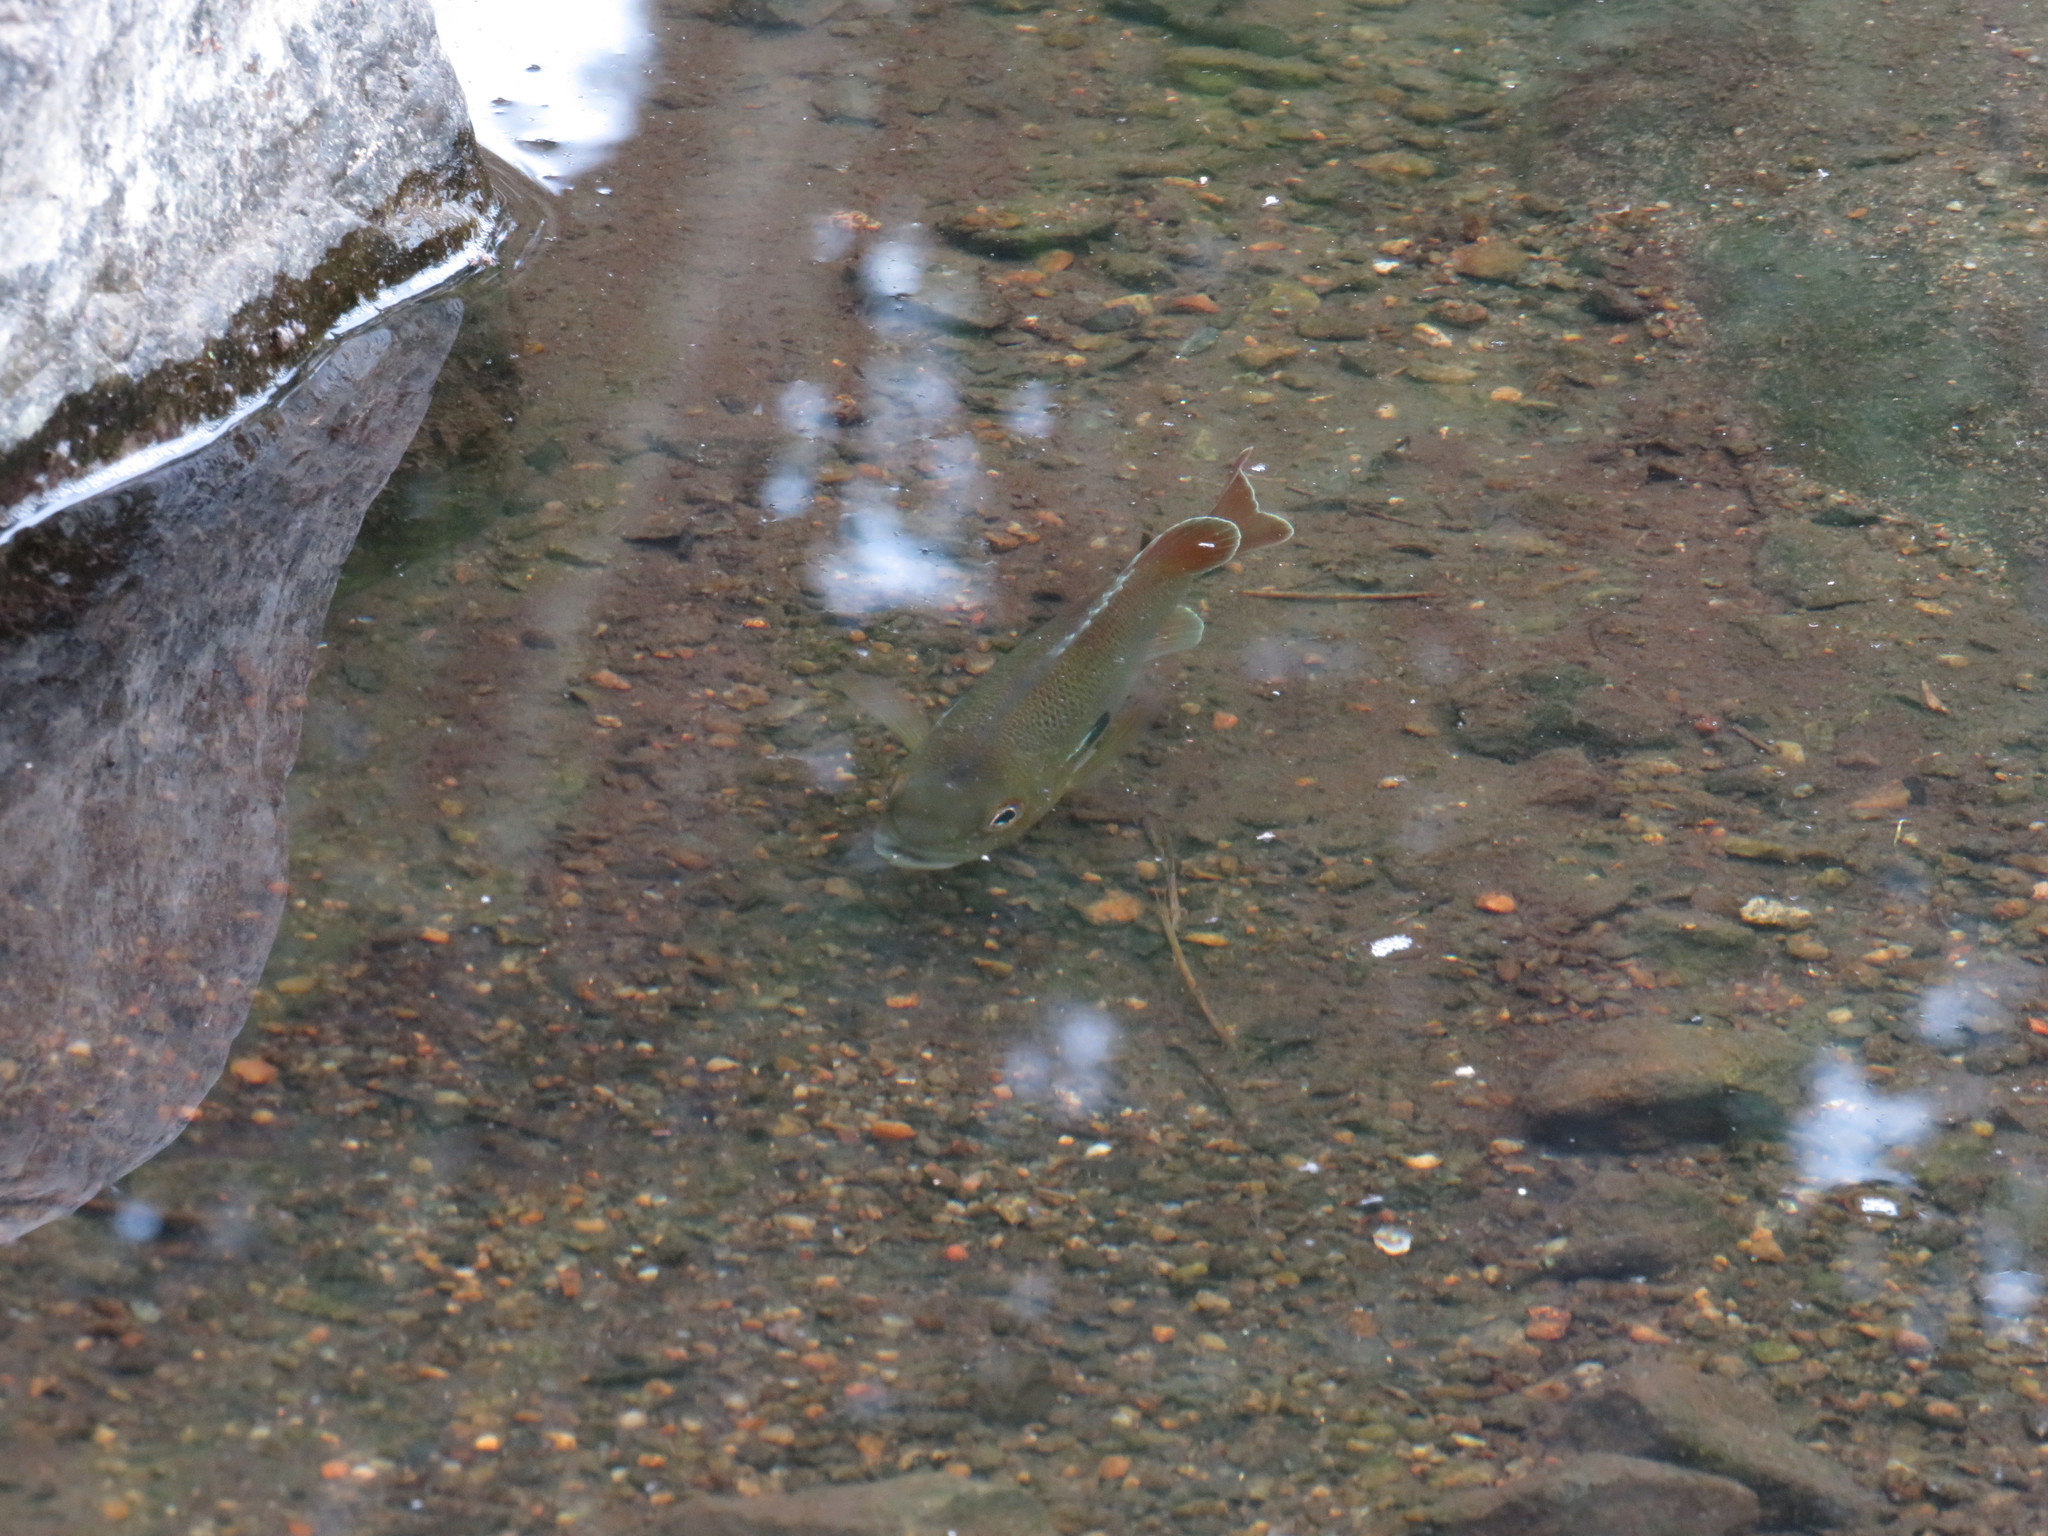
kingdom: Animalia
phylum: Chordata
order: Perciformes
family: Centrarchidae
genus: Lepomis
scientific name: Lepomis auritus
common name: Redbreast sunfish
